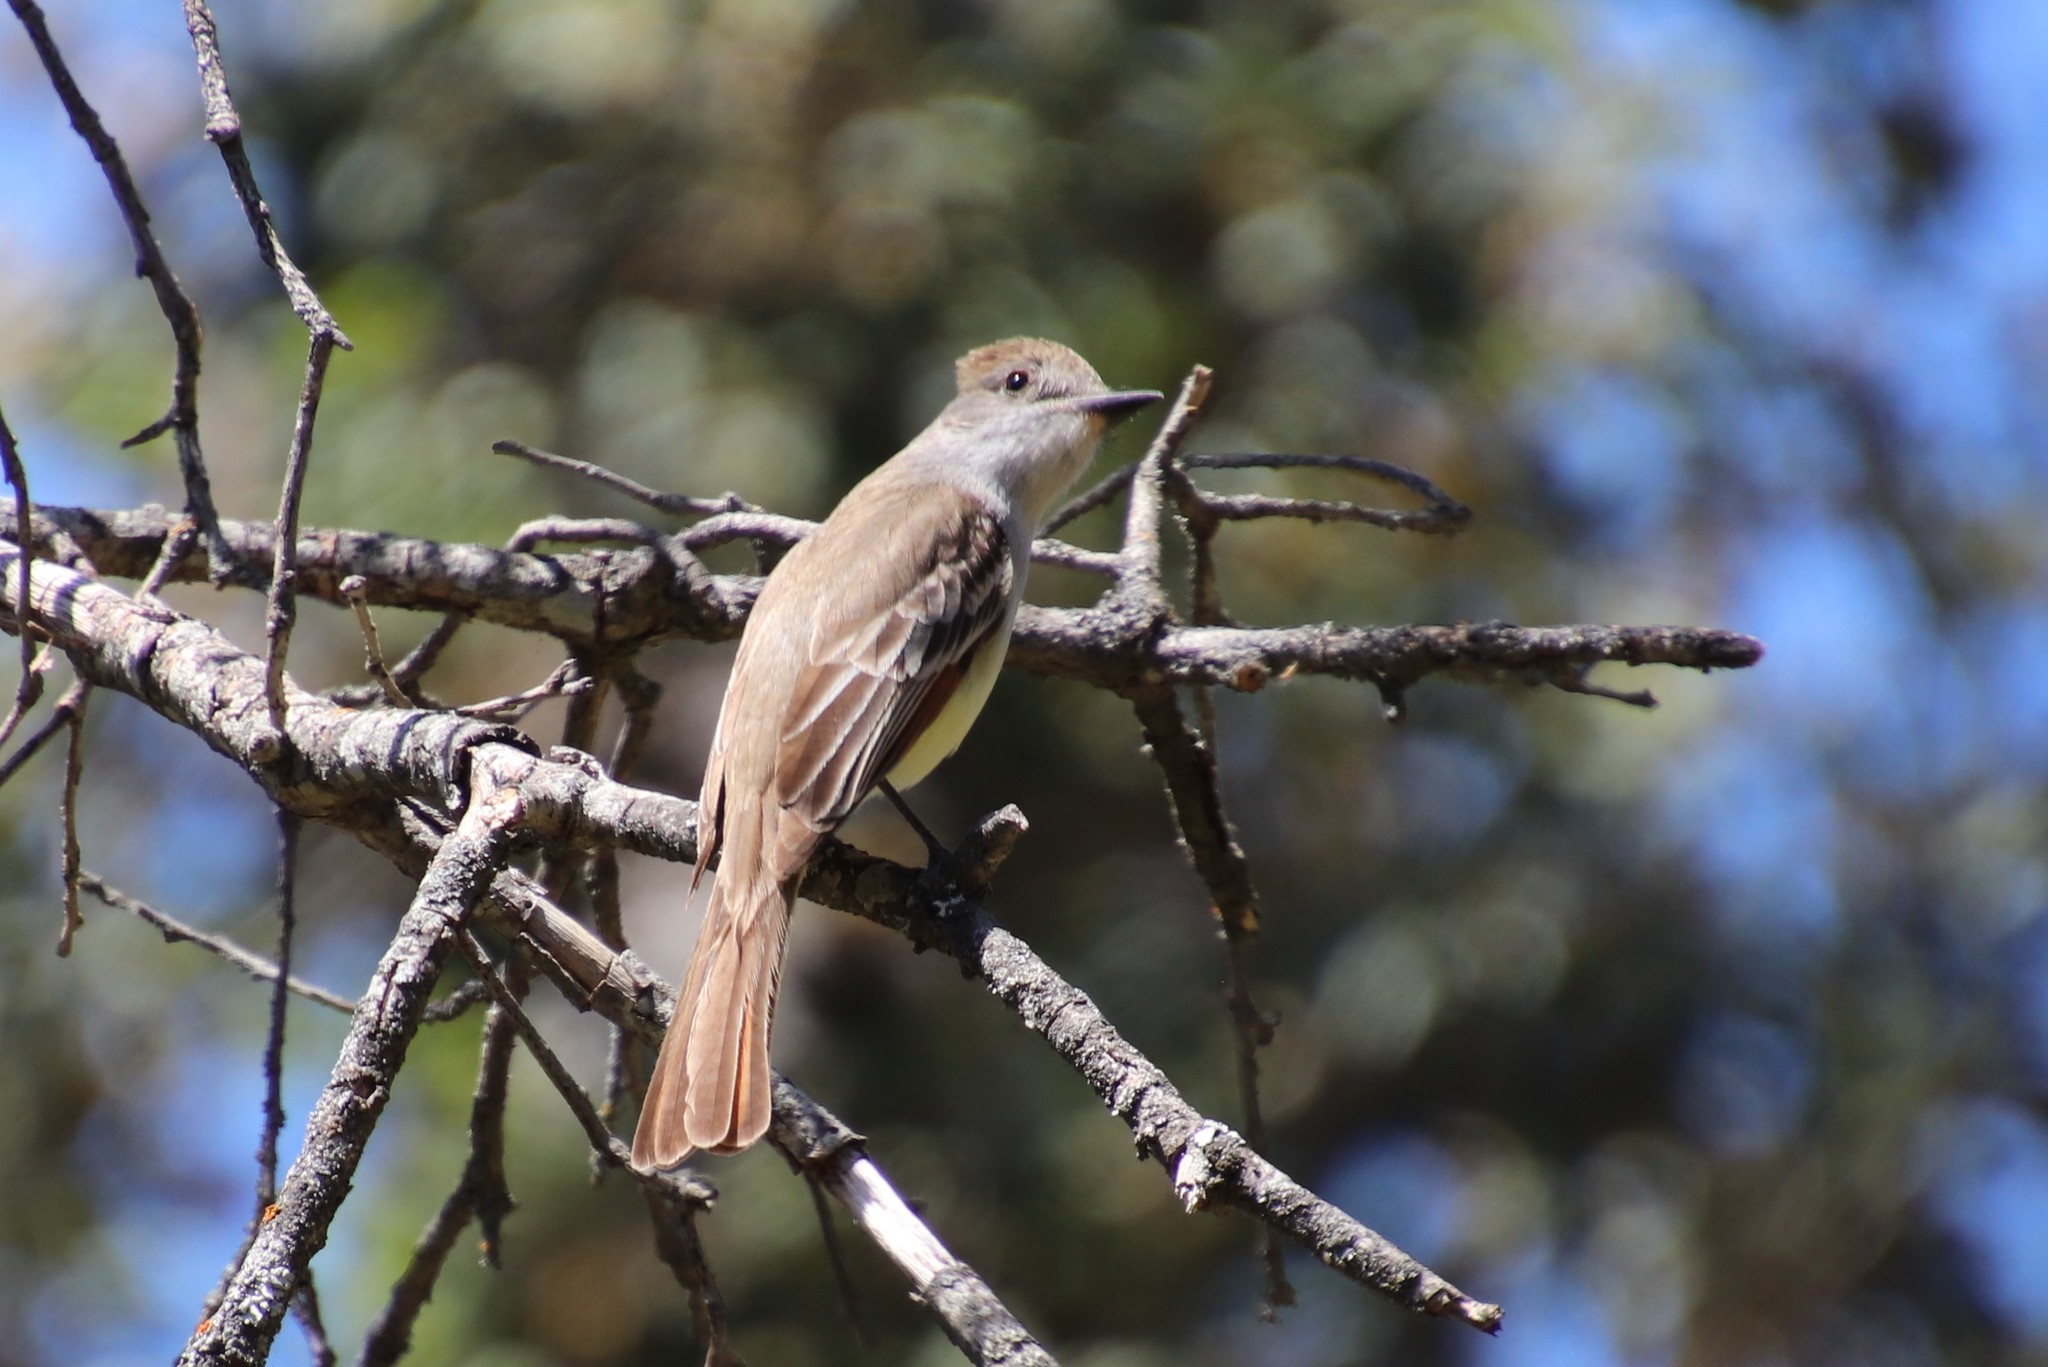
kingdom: Animalia
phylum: Chordata
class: Aves
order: Passeriformes
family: Tyrannidae
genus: Myiarchus
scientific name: Myiarchus cinerascens
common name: Ash-throated flycatcher
